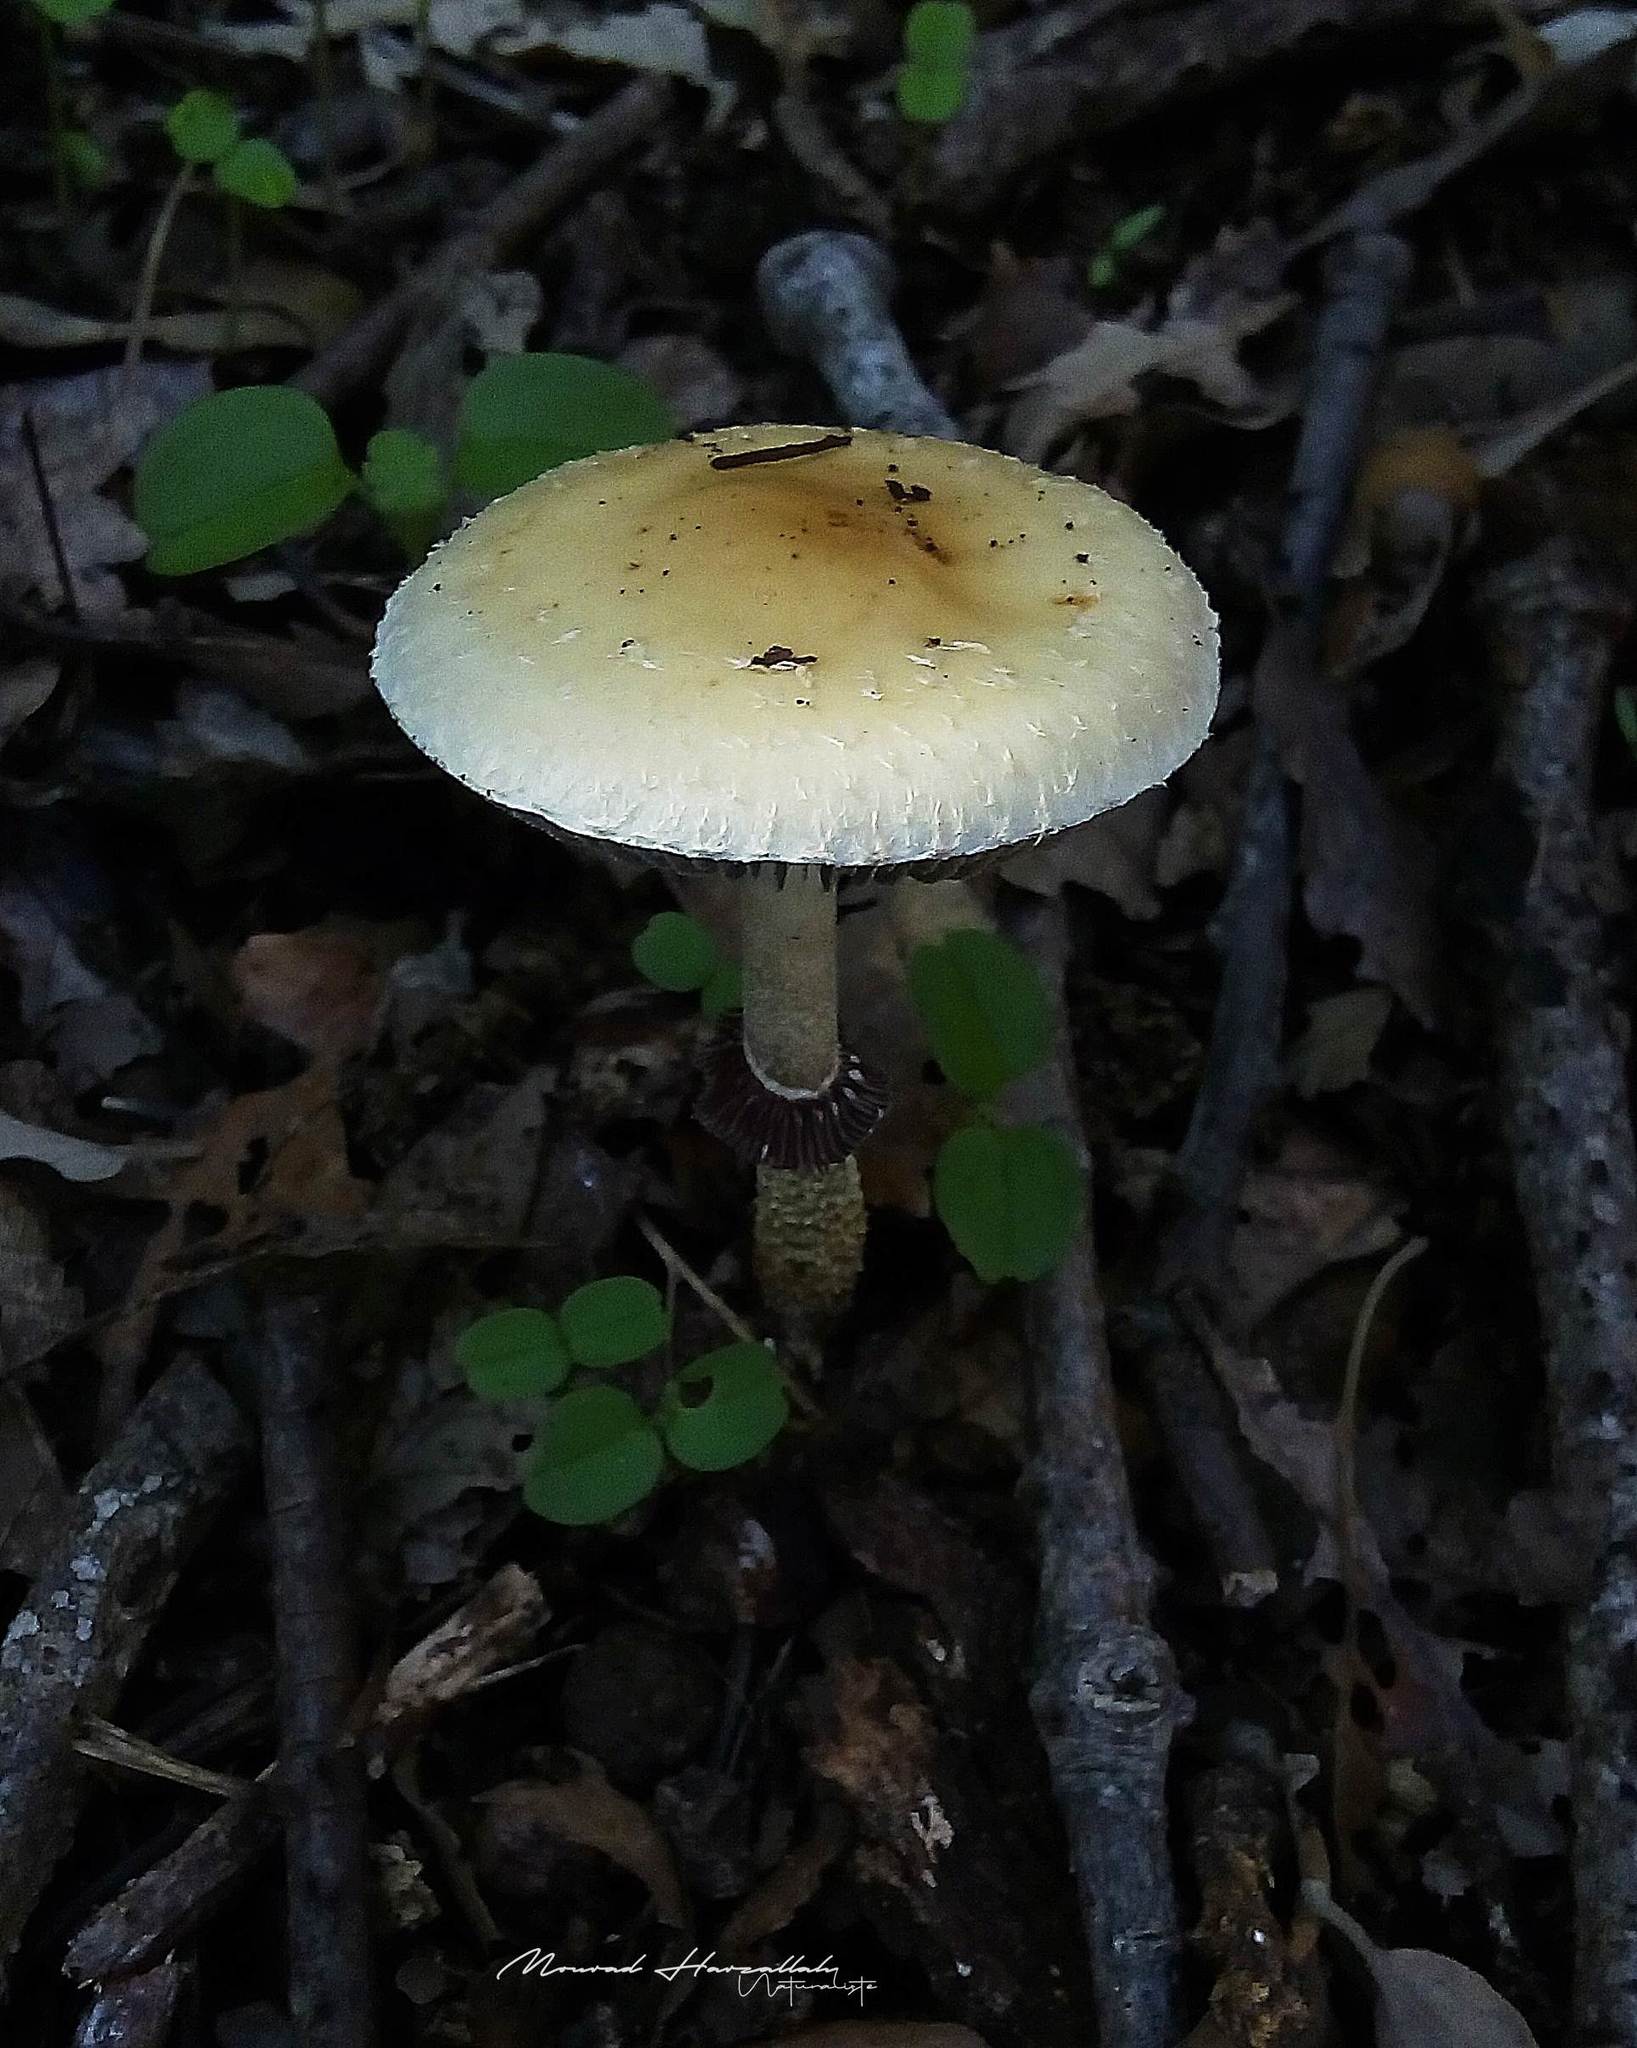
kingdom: Fungi
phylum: Basidiomycota
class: Agaricomycetes
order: Agaricales
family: Strophariaceae
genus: Protostropharia
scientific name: Protostropharia semiglobata
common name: Dung roundhead
